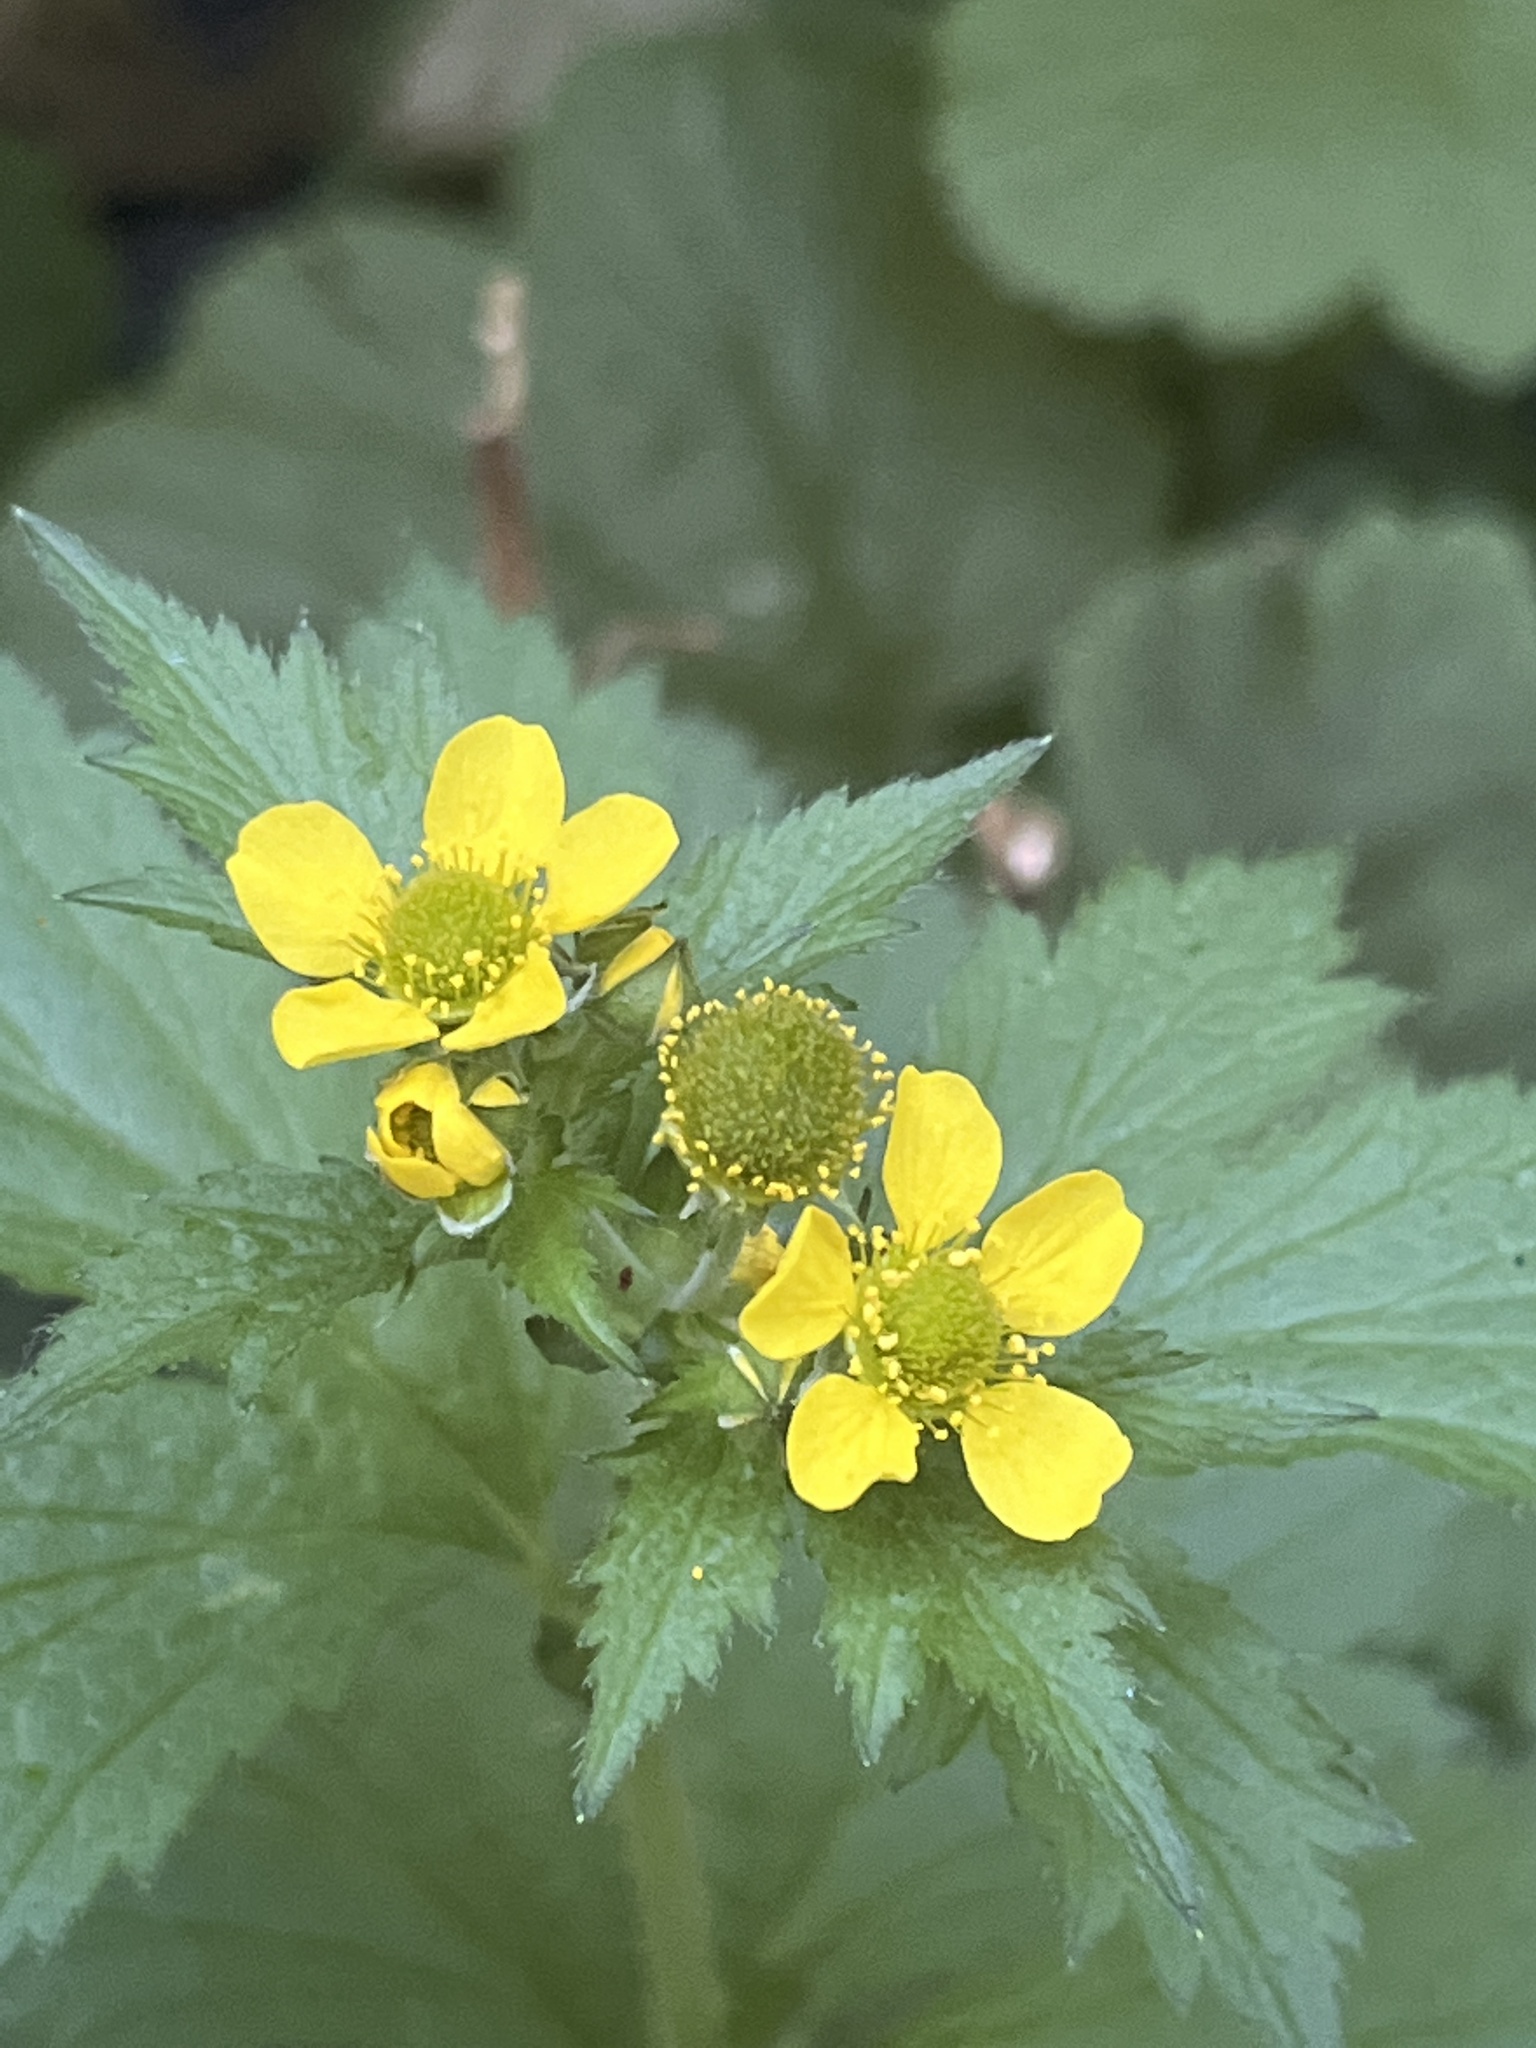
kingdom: Plantae
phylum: Tracheophyta
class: Magnoliopsida
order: Rosales
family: Rosaceae
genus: Geum
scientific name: Geum macrophyllum
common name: Large-leaved avens
